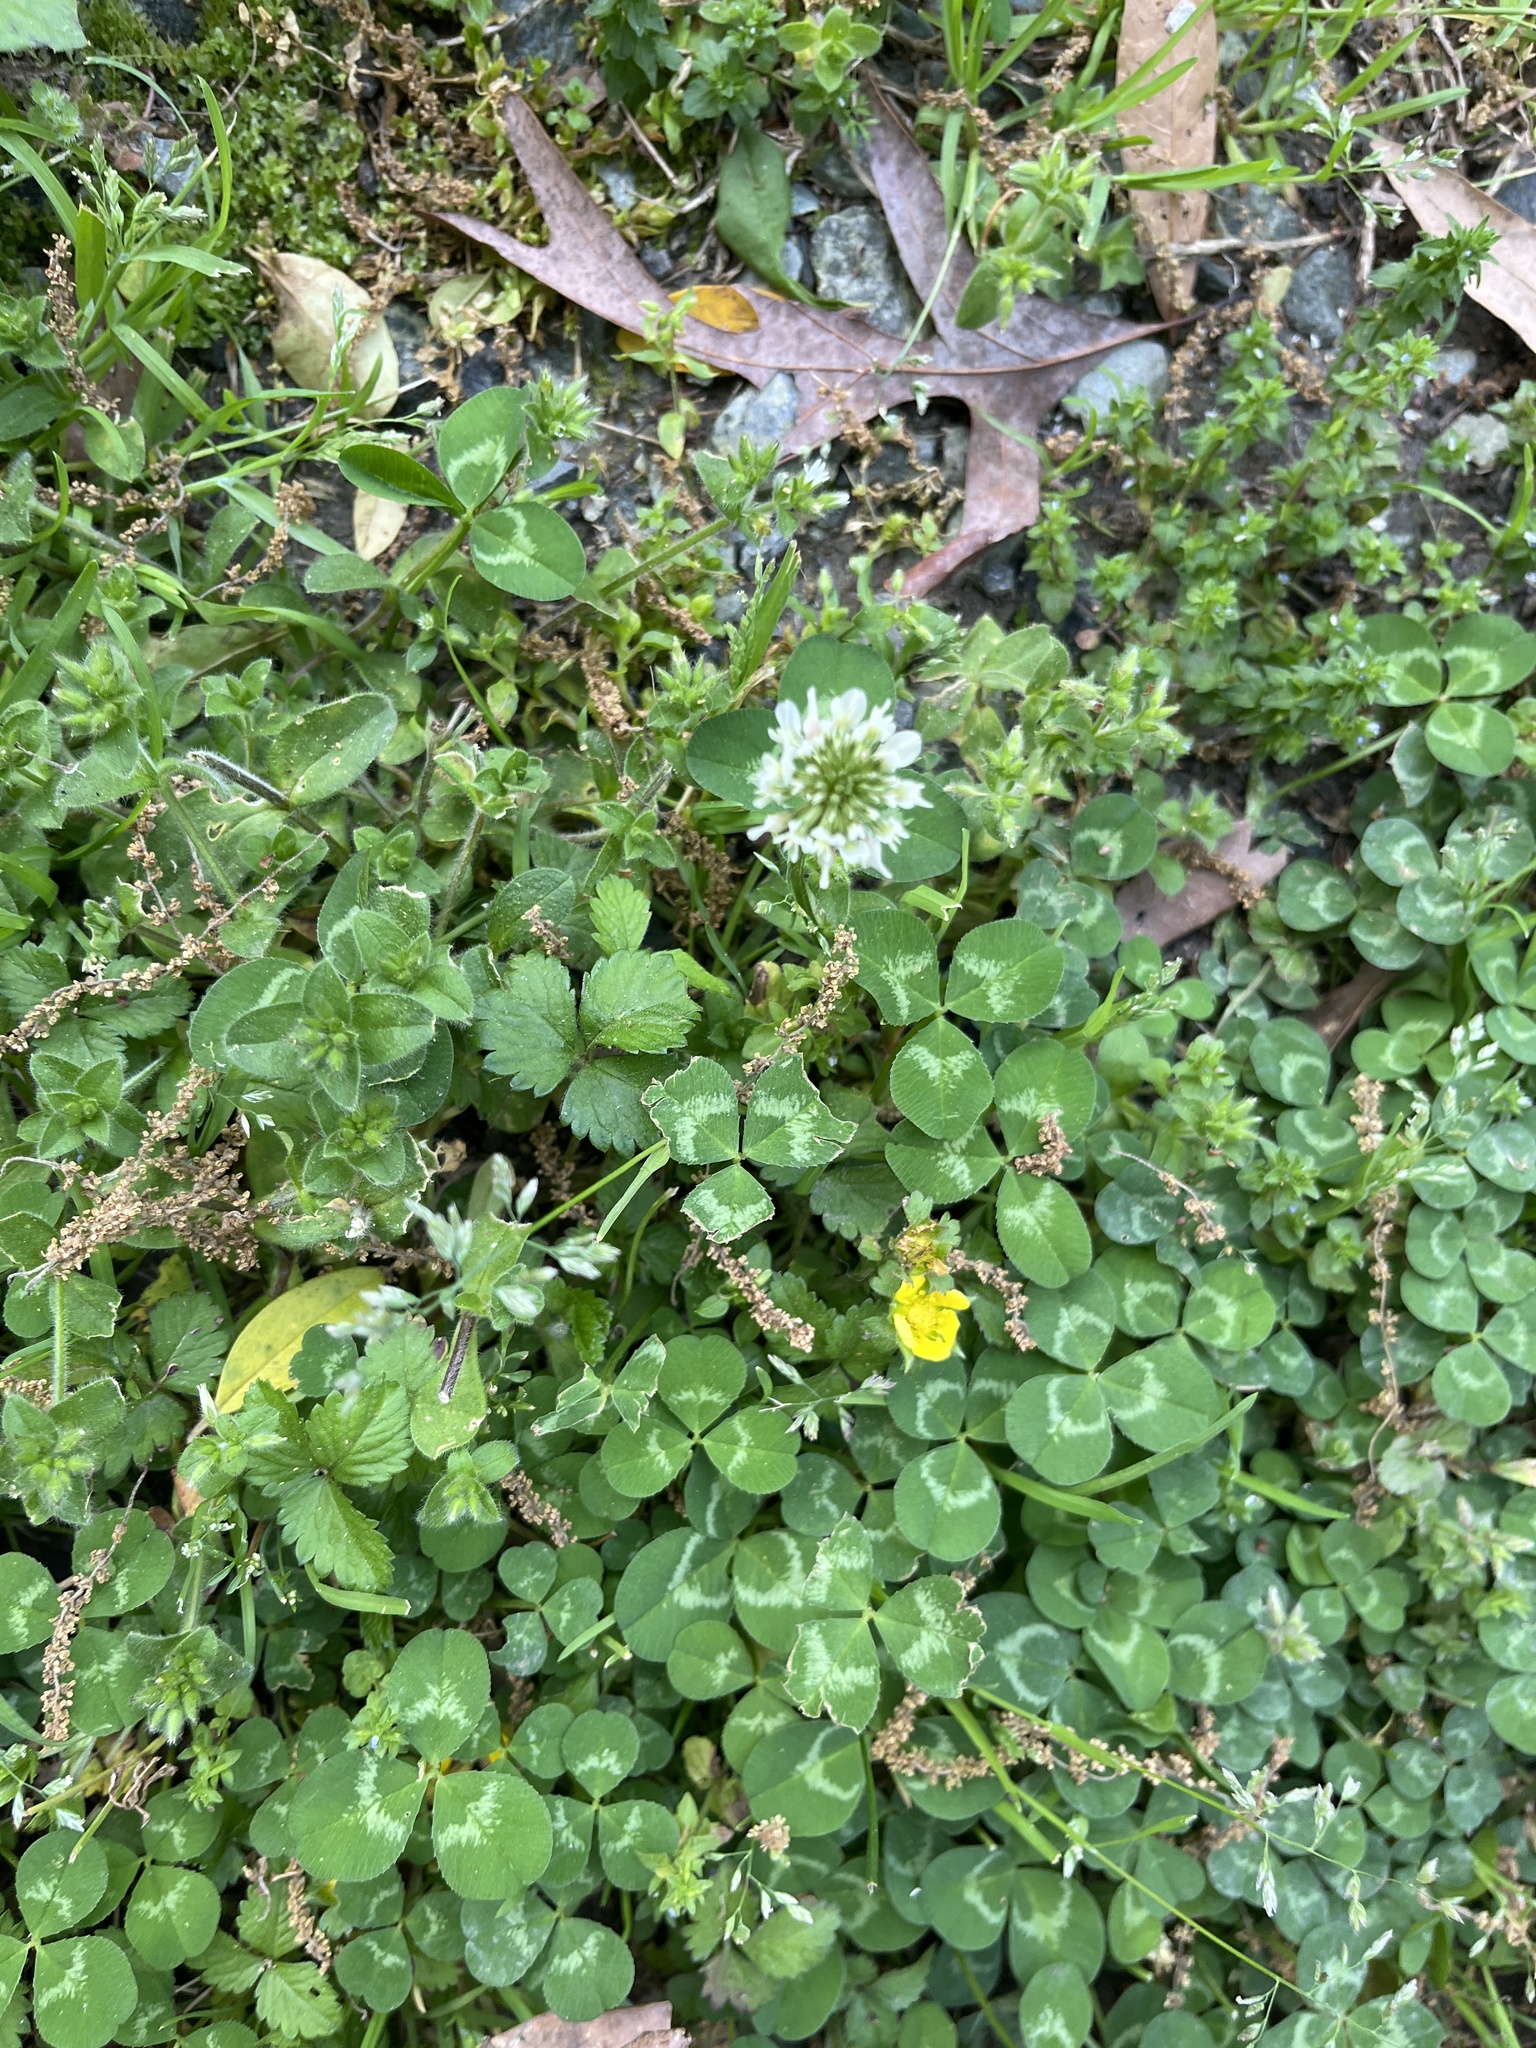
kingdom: Plantae
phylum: Tracheophyta
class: Magnoliopsida
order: Fabales
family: Fabaceae
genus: Trifolium
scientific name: Trifolium repens
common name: White clover
